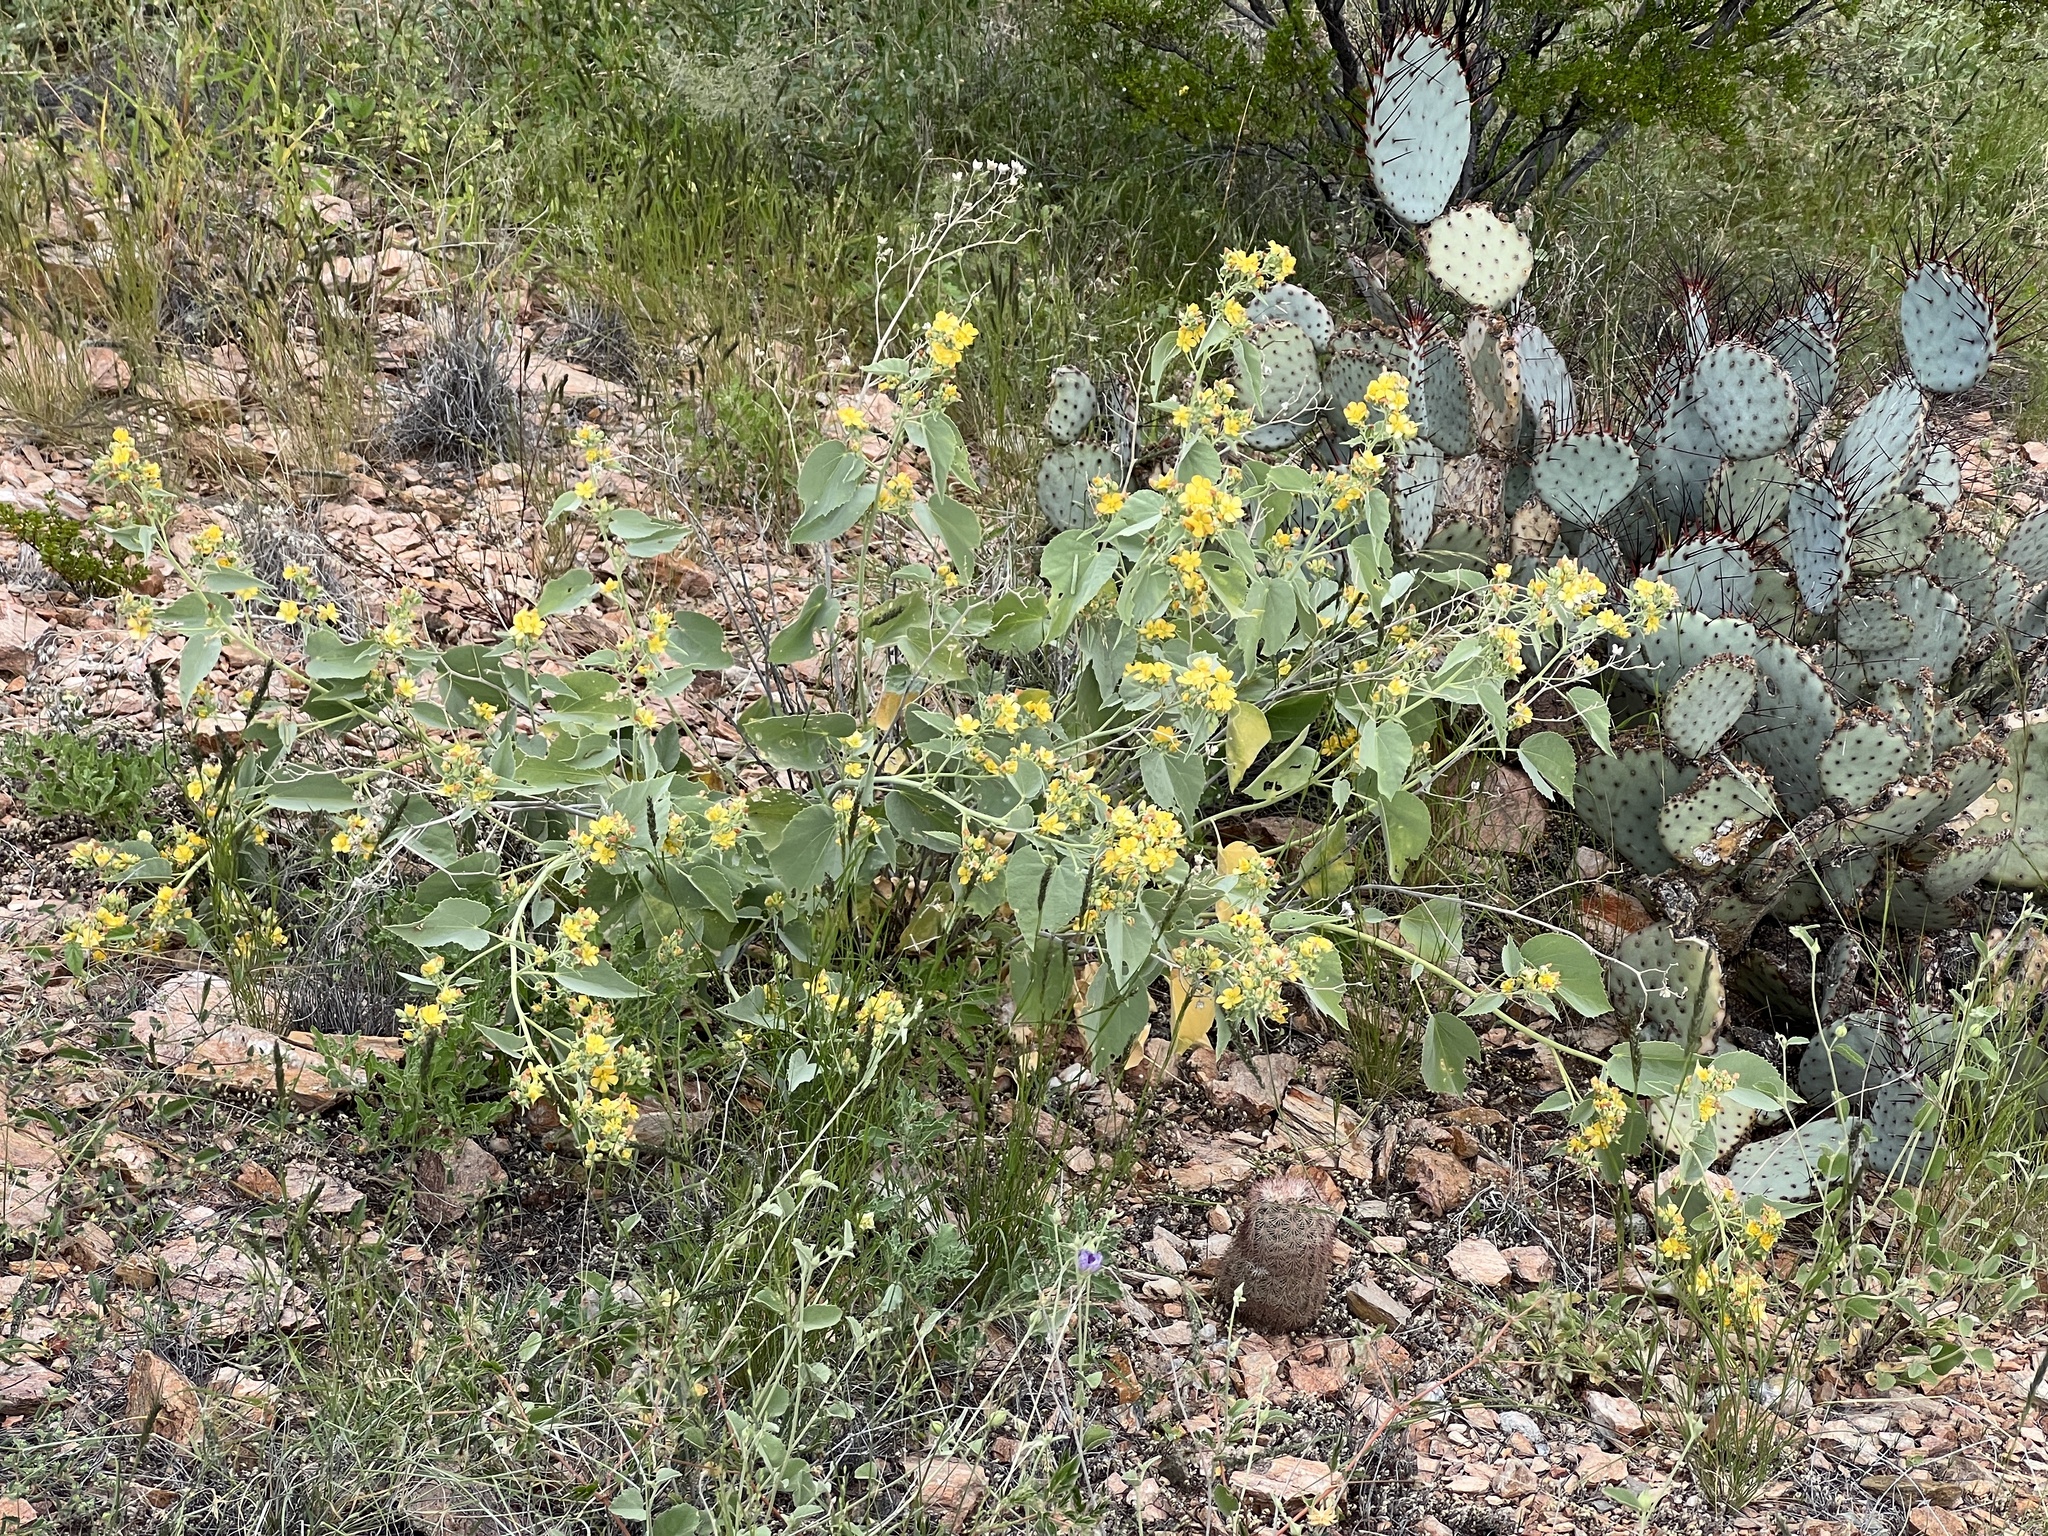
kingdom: Plantae
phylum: Tracheophyta
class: Magnoliopsida
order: Malvales
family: Malvaceae
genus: Abutilon
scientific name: Abutilon malacum
